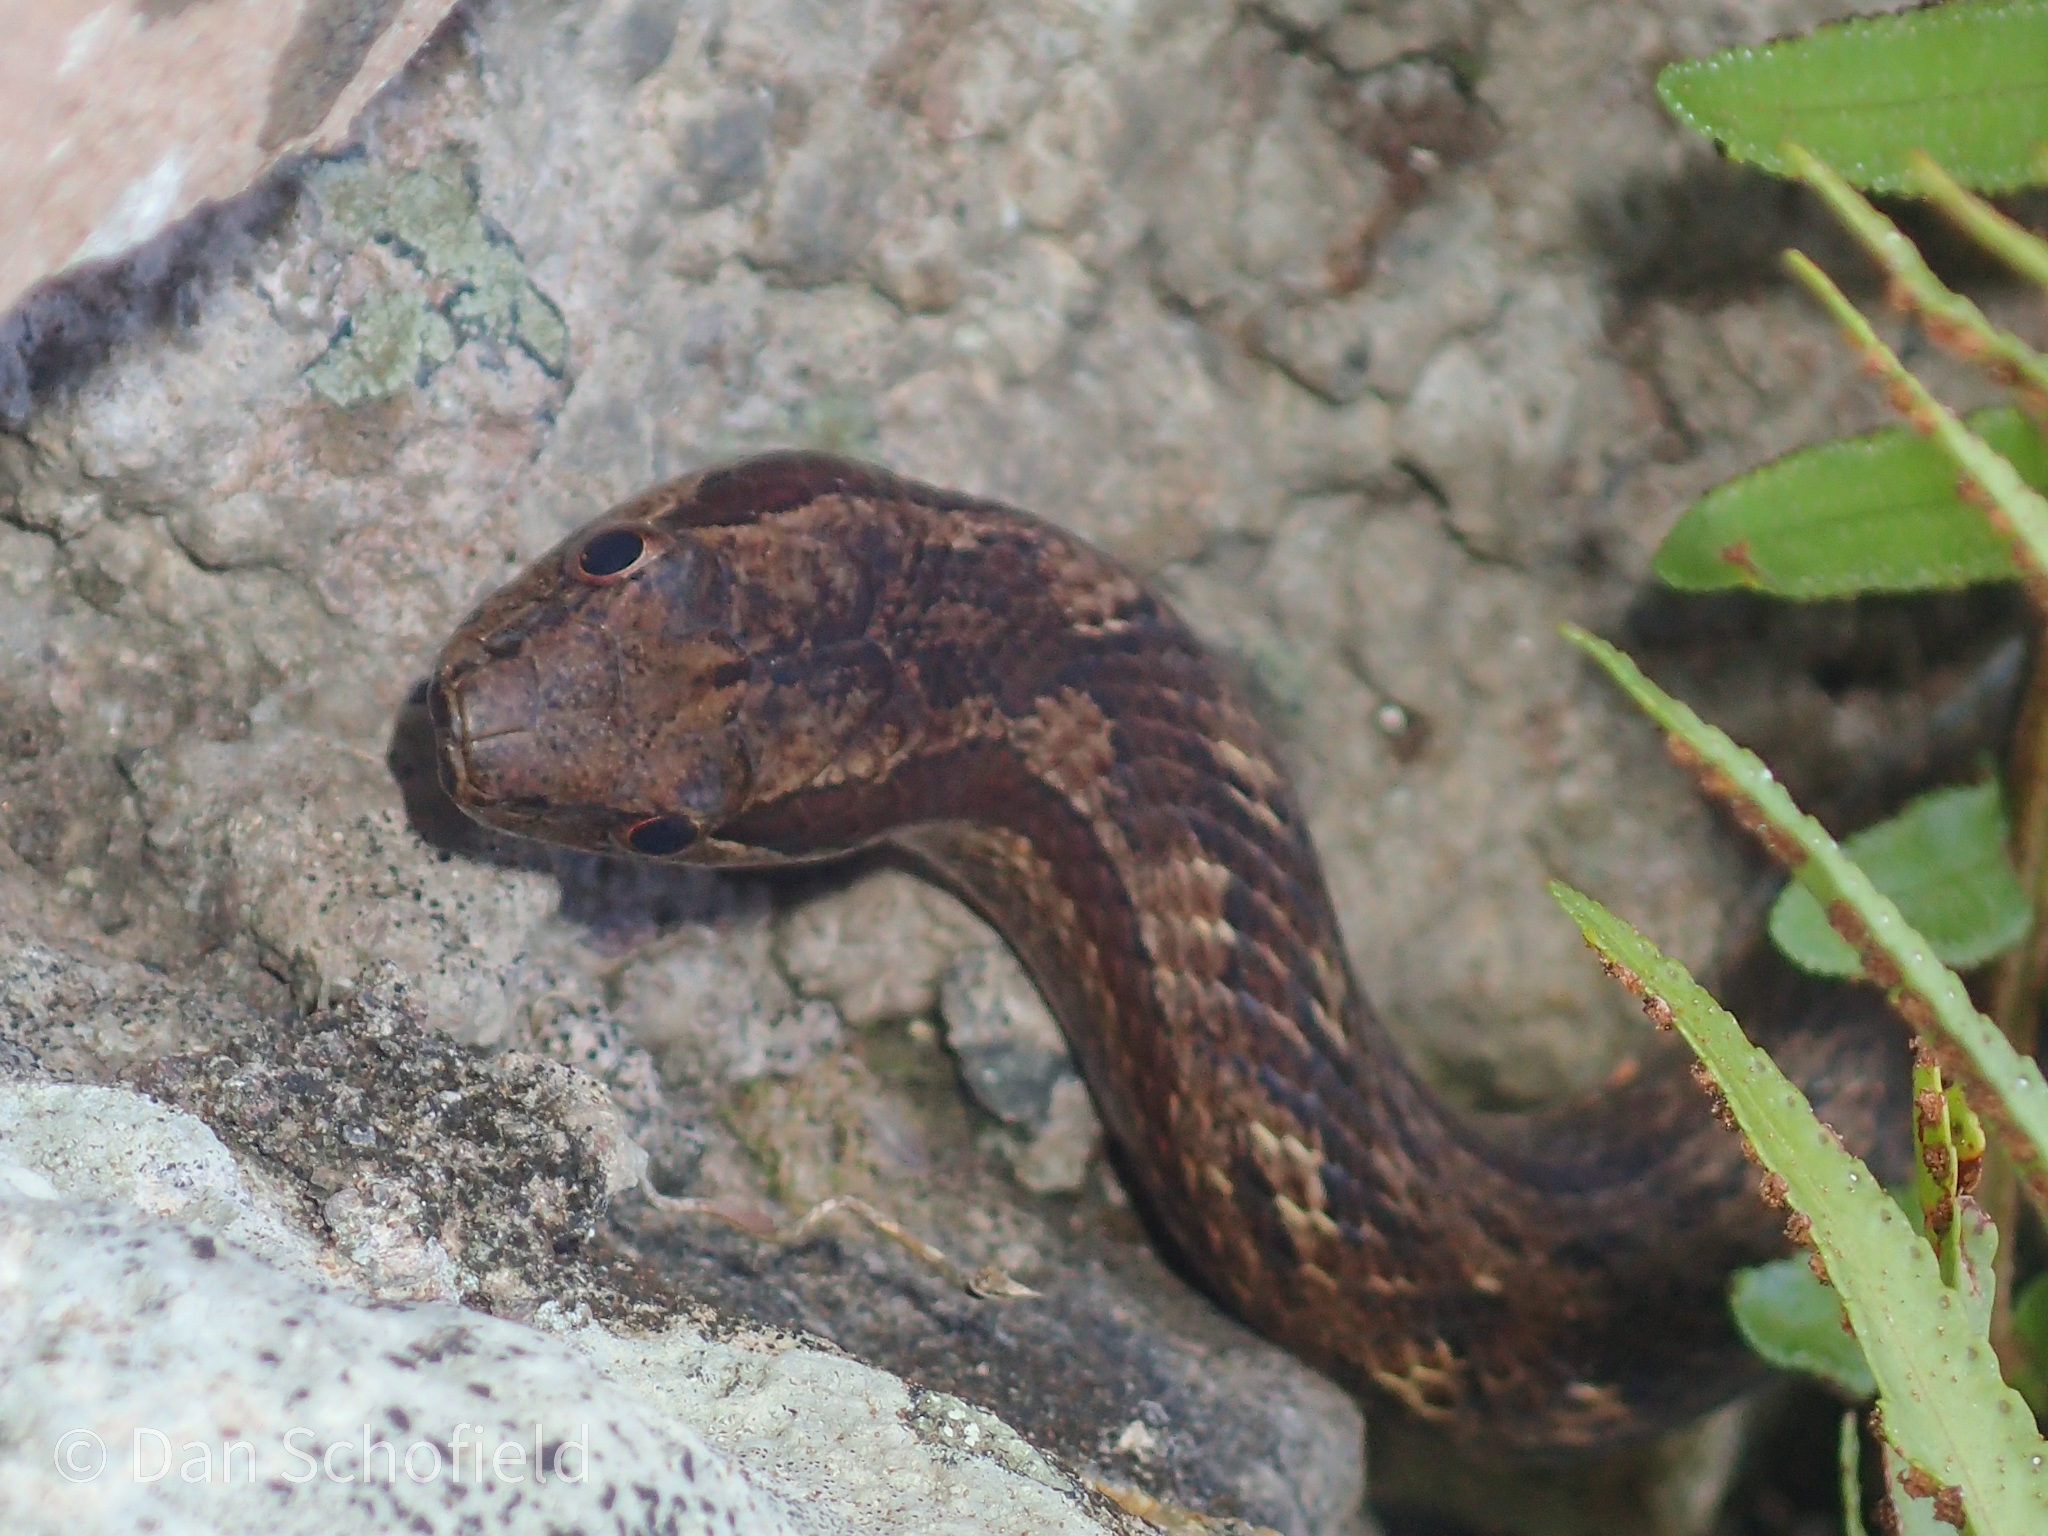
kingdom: Animalia
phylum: Chordata
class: Squamata
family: Colubridae
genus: Alsophis
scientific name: Alsophis rufiventris
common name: Orange-bellied racer
